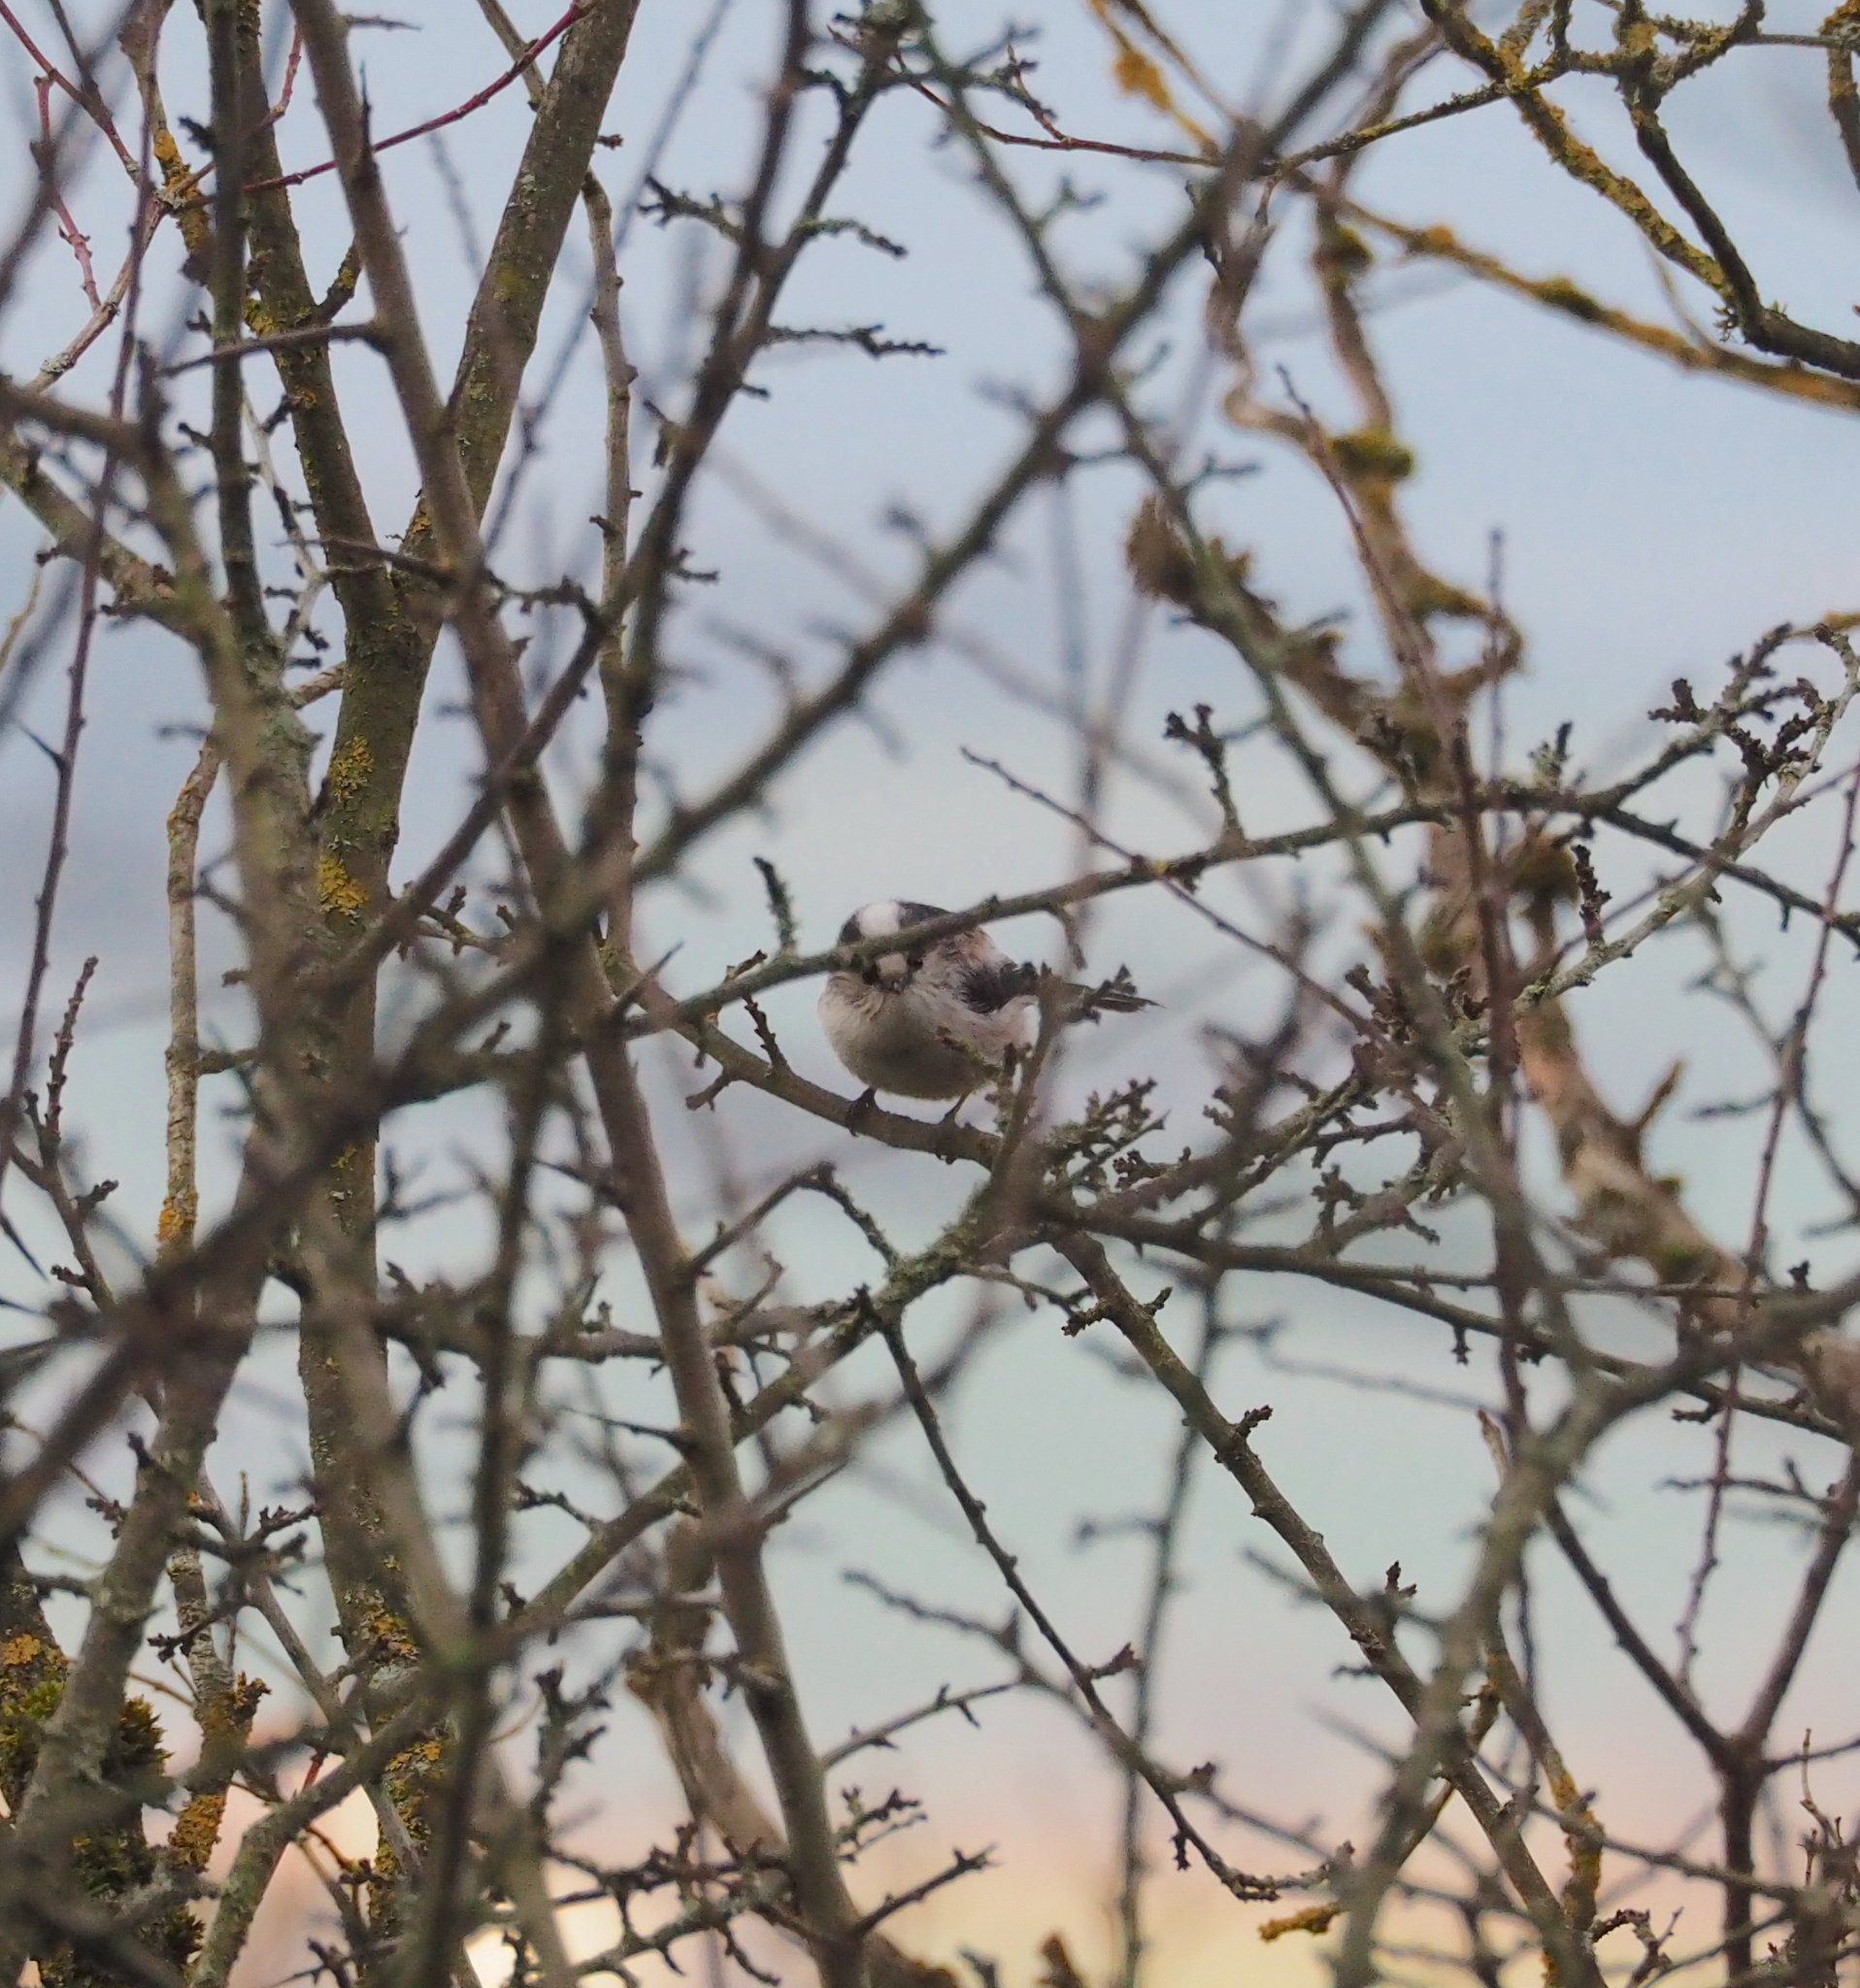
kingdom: Animalia
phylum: Chordata
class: Aves
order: Passeriformes
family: Aegithalidae
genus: Aegithalos
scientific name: Aegithalos caudatus
